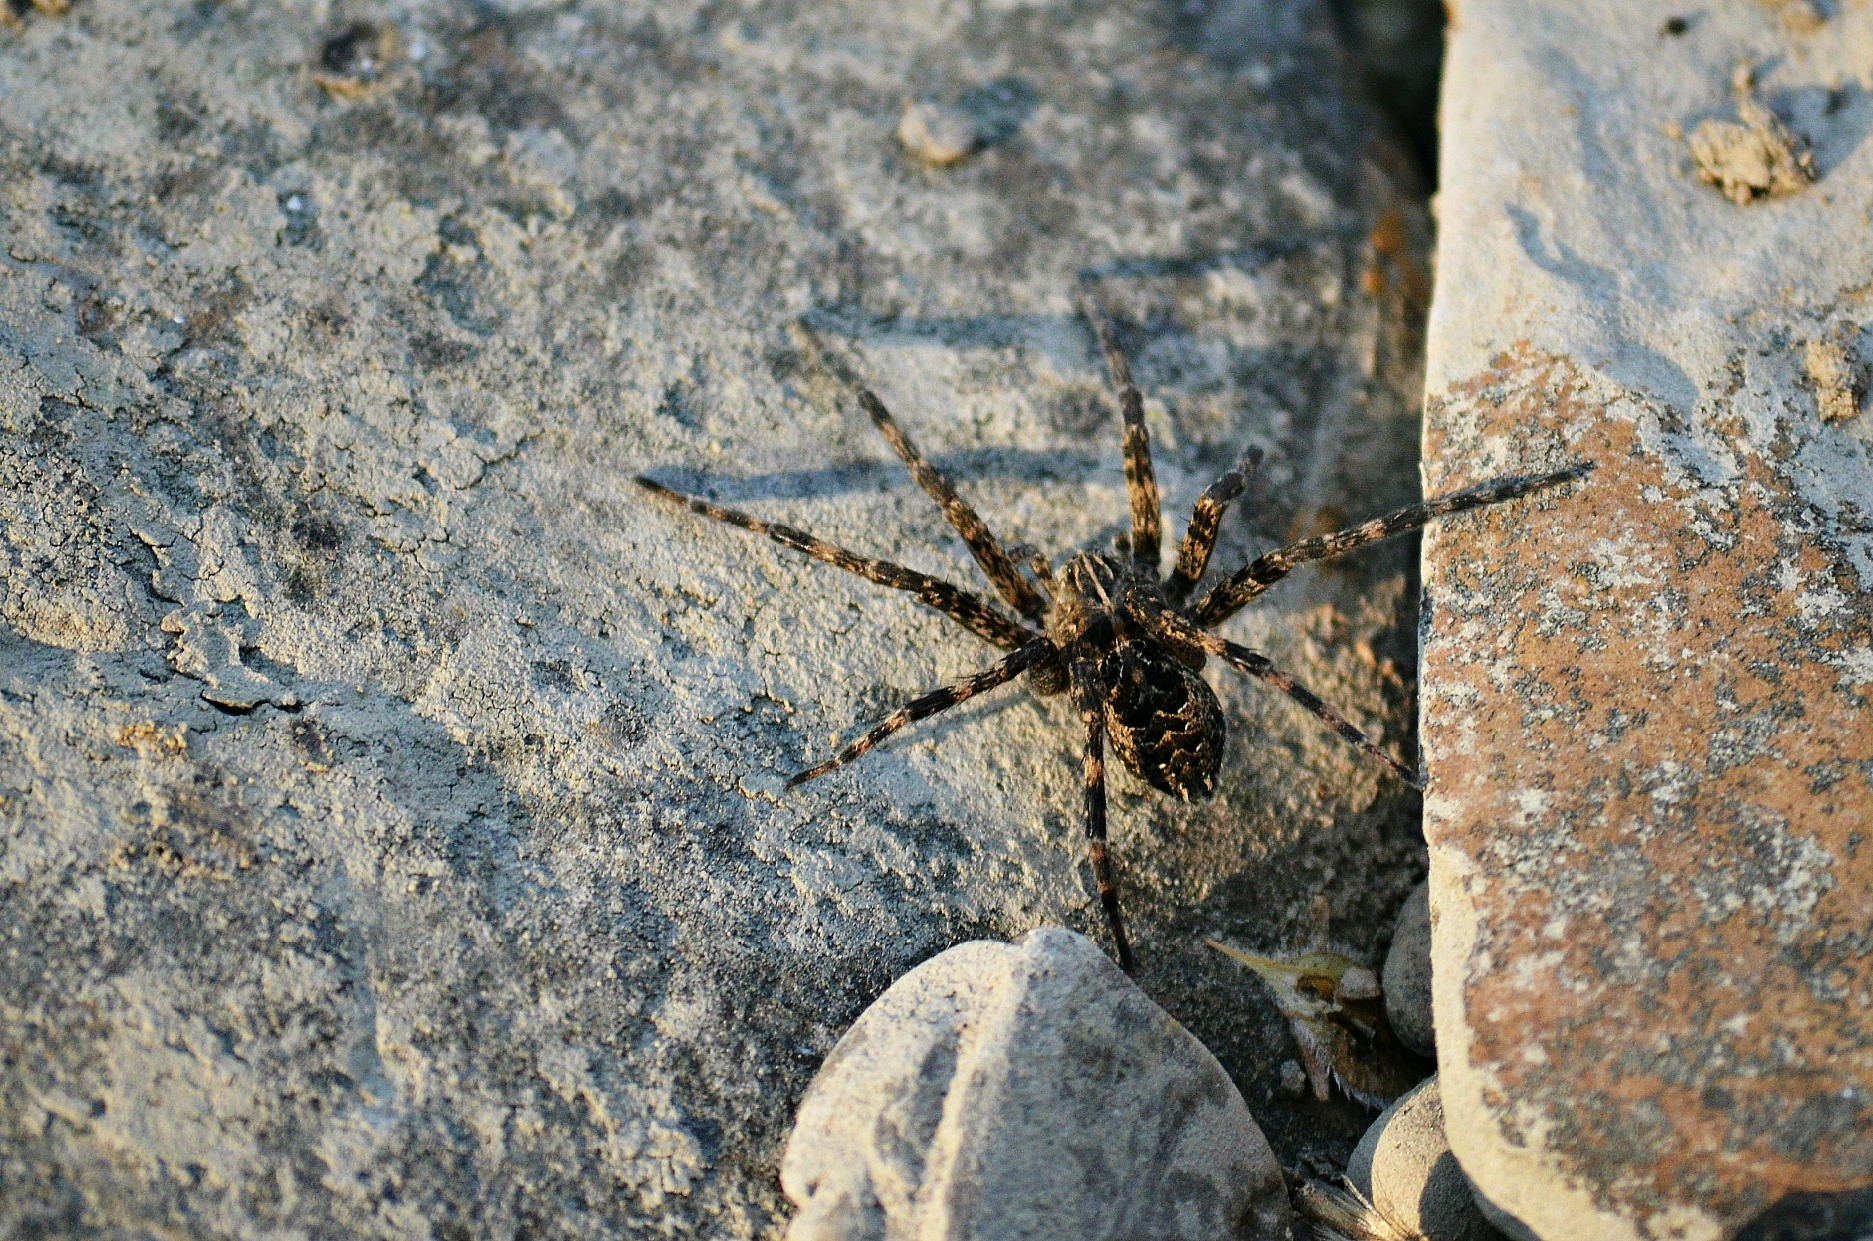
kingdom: Animalia
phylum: Arthropoda
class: Arachnida
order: Araneae
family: Pisauridae
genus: Dolomedes
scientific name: Dolomedes scriptus
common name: Striped fishing spider
